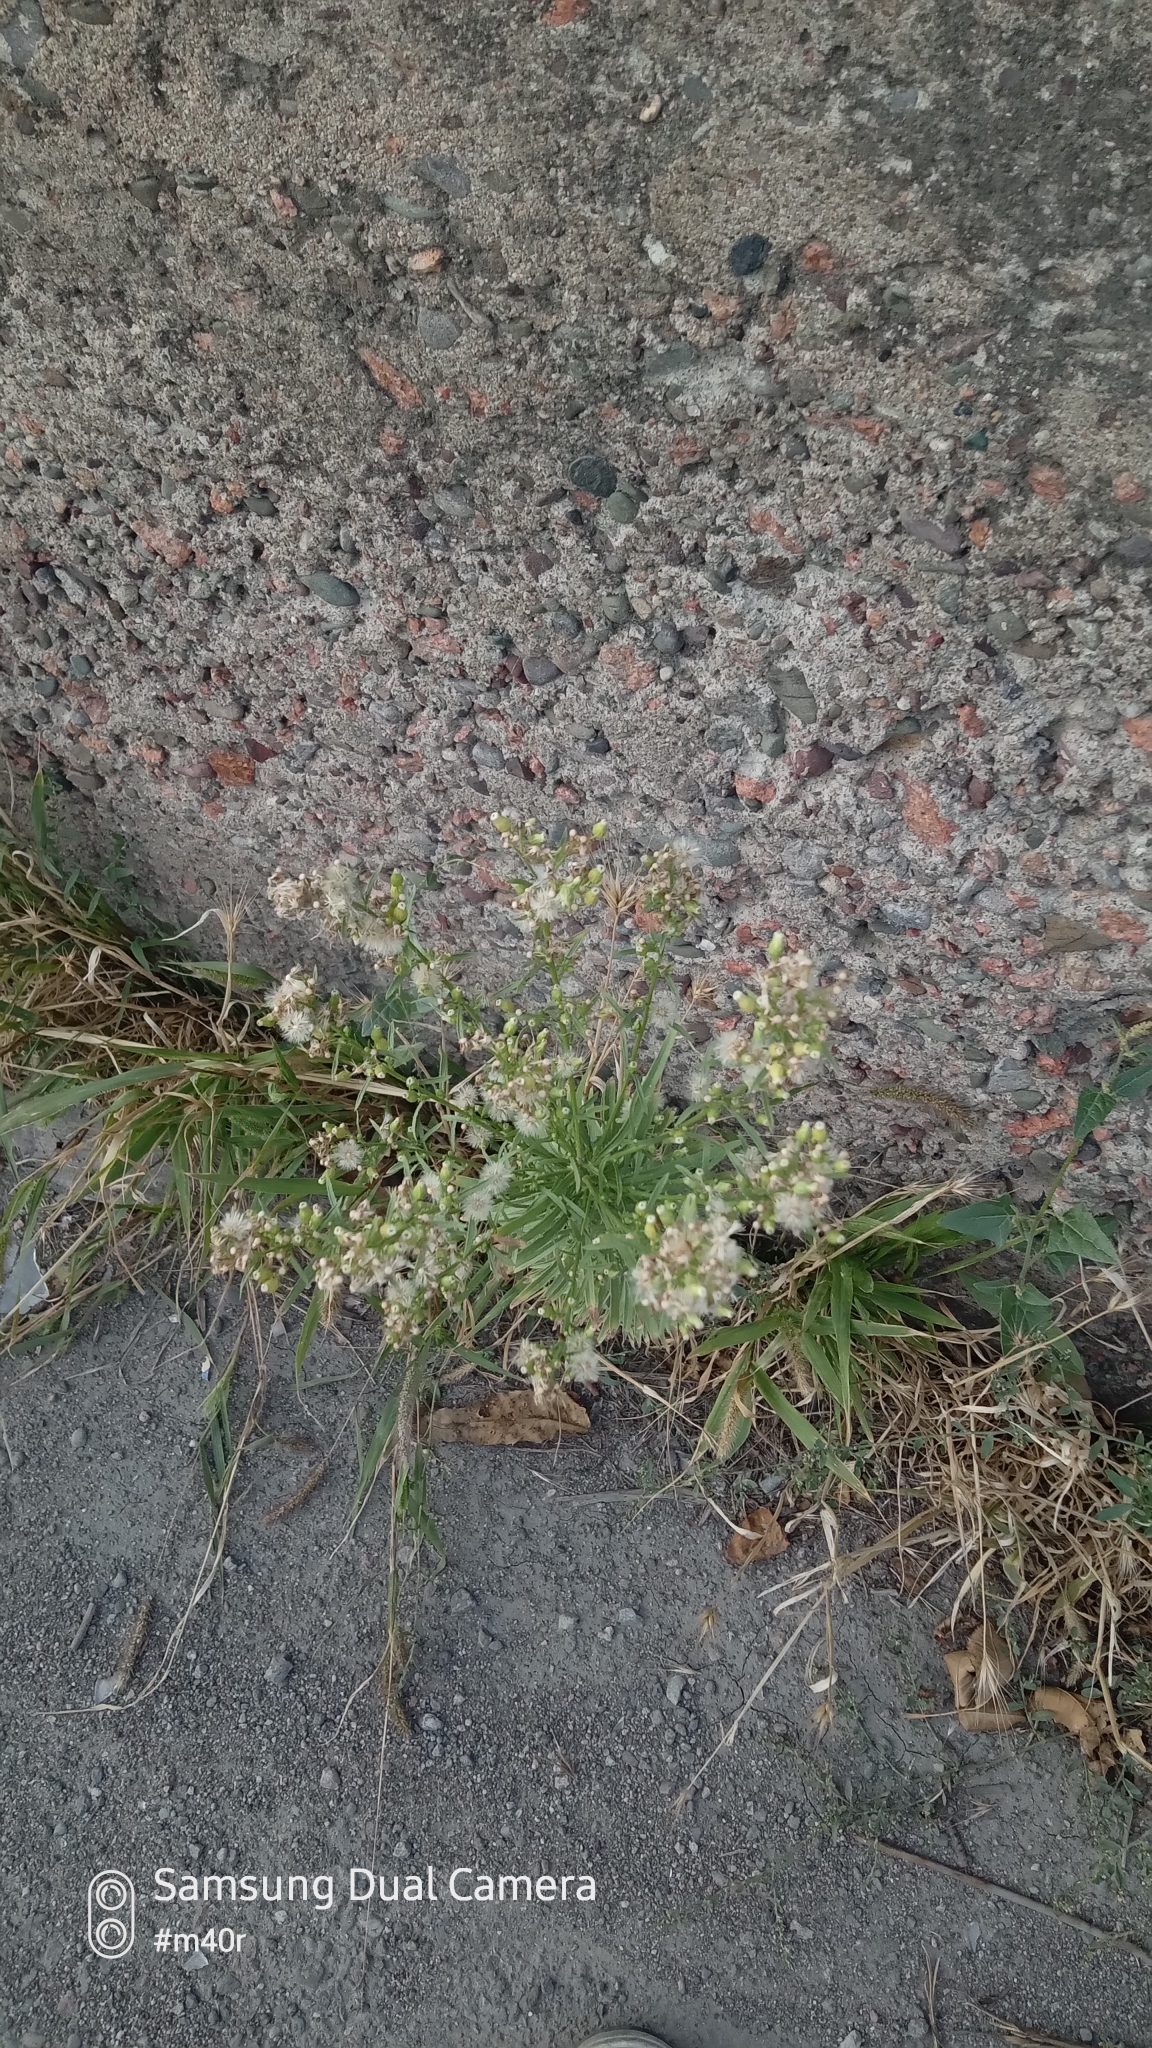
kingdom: Plantae
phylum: Tracheophyta
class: Magnoliopsida
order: Asterales
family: Asteraceae
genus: Erigeron
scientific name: Erigeron canadensis
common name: Canadian fleabane
